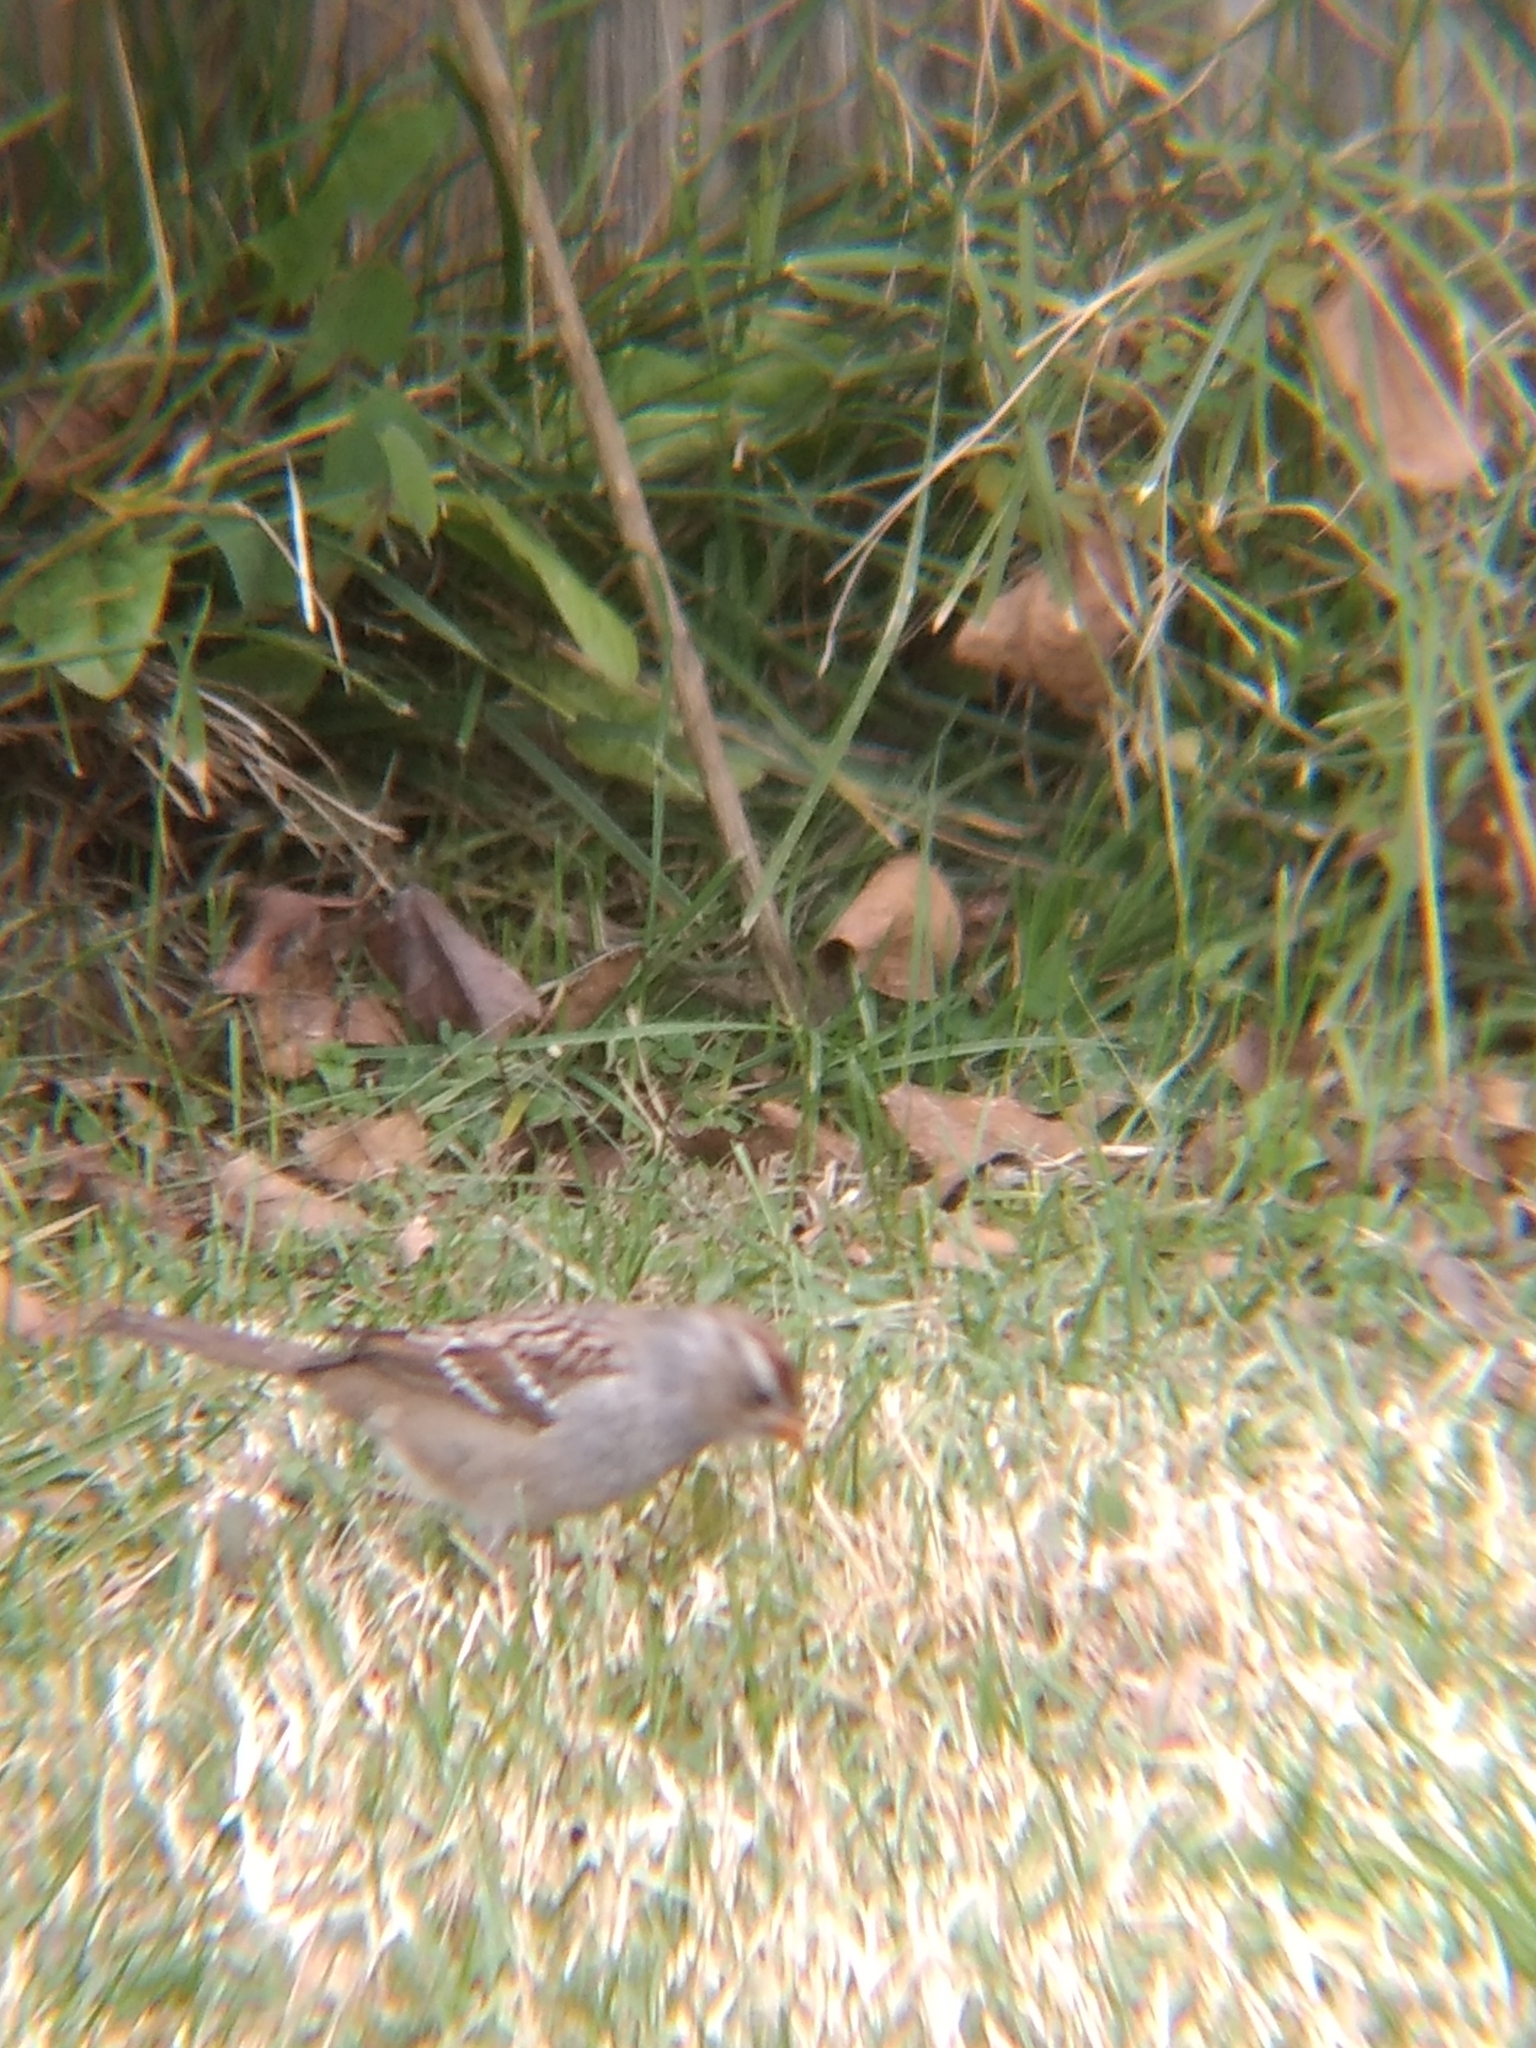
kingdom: Animalia
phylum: Chordata
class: Aves
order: Passeriformes
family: Passerellidae
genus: Zonotrichia
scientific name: Zonotrichia leucophrys
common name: White-crowned sparrow
